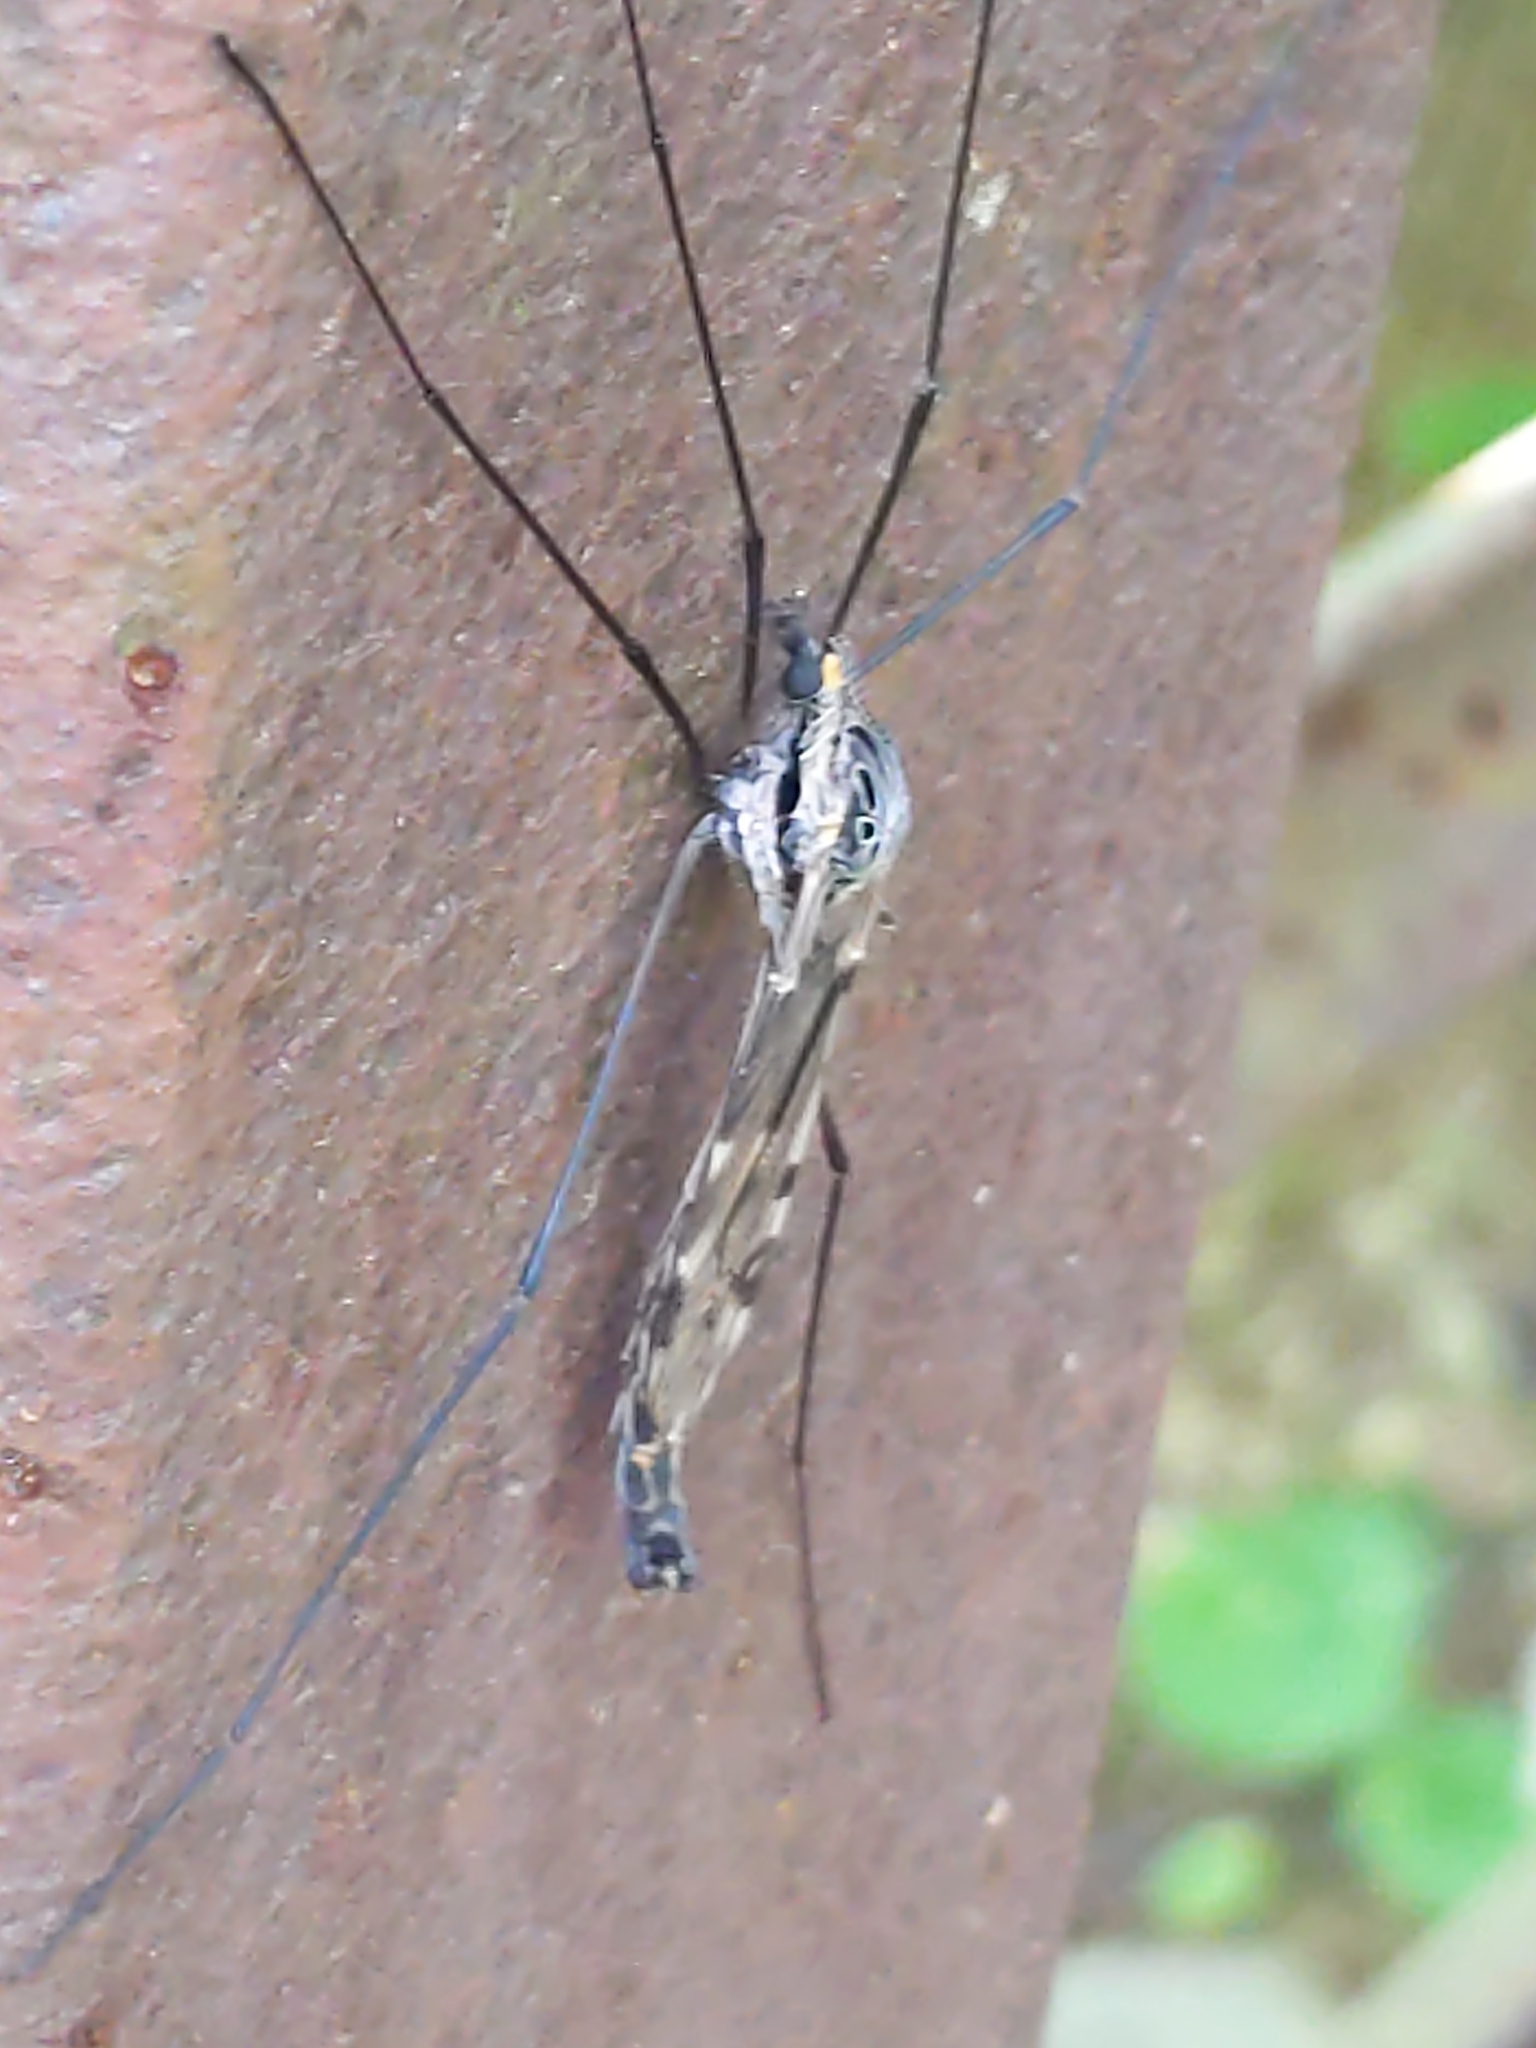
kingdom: Animalia
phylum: Arthropoda
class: Insecta
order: Diptera
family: Tipulidae
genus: Tipula
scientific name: Tipula metacomet
